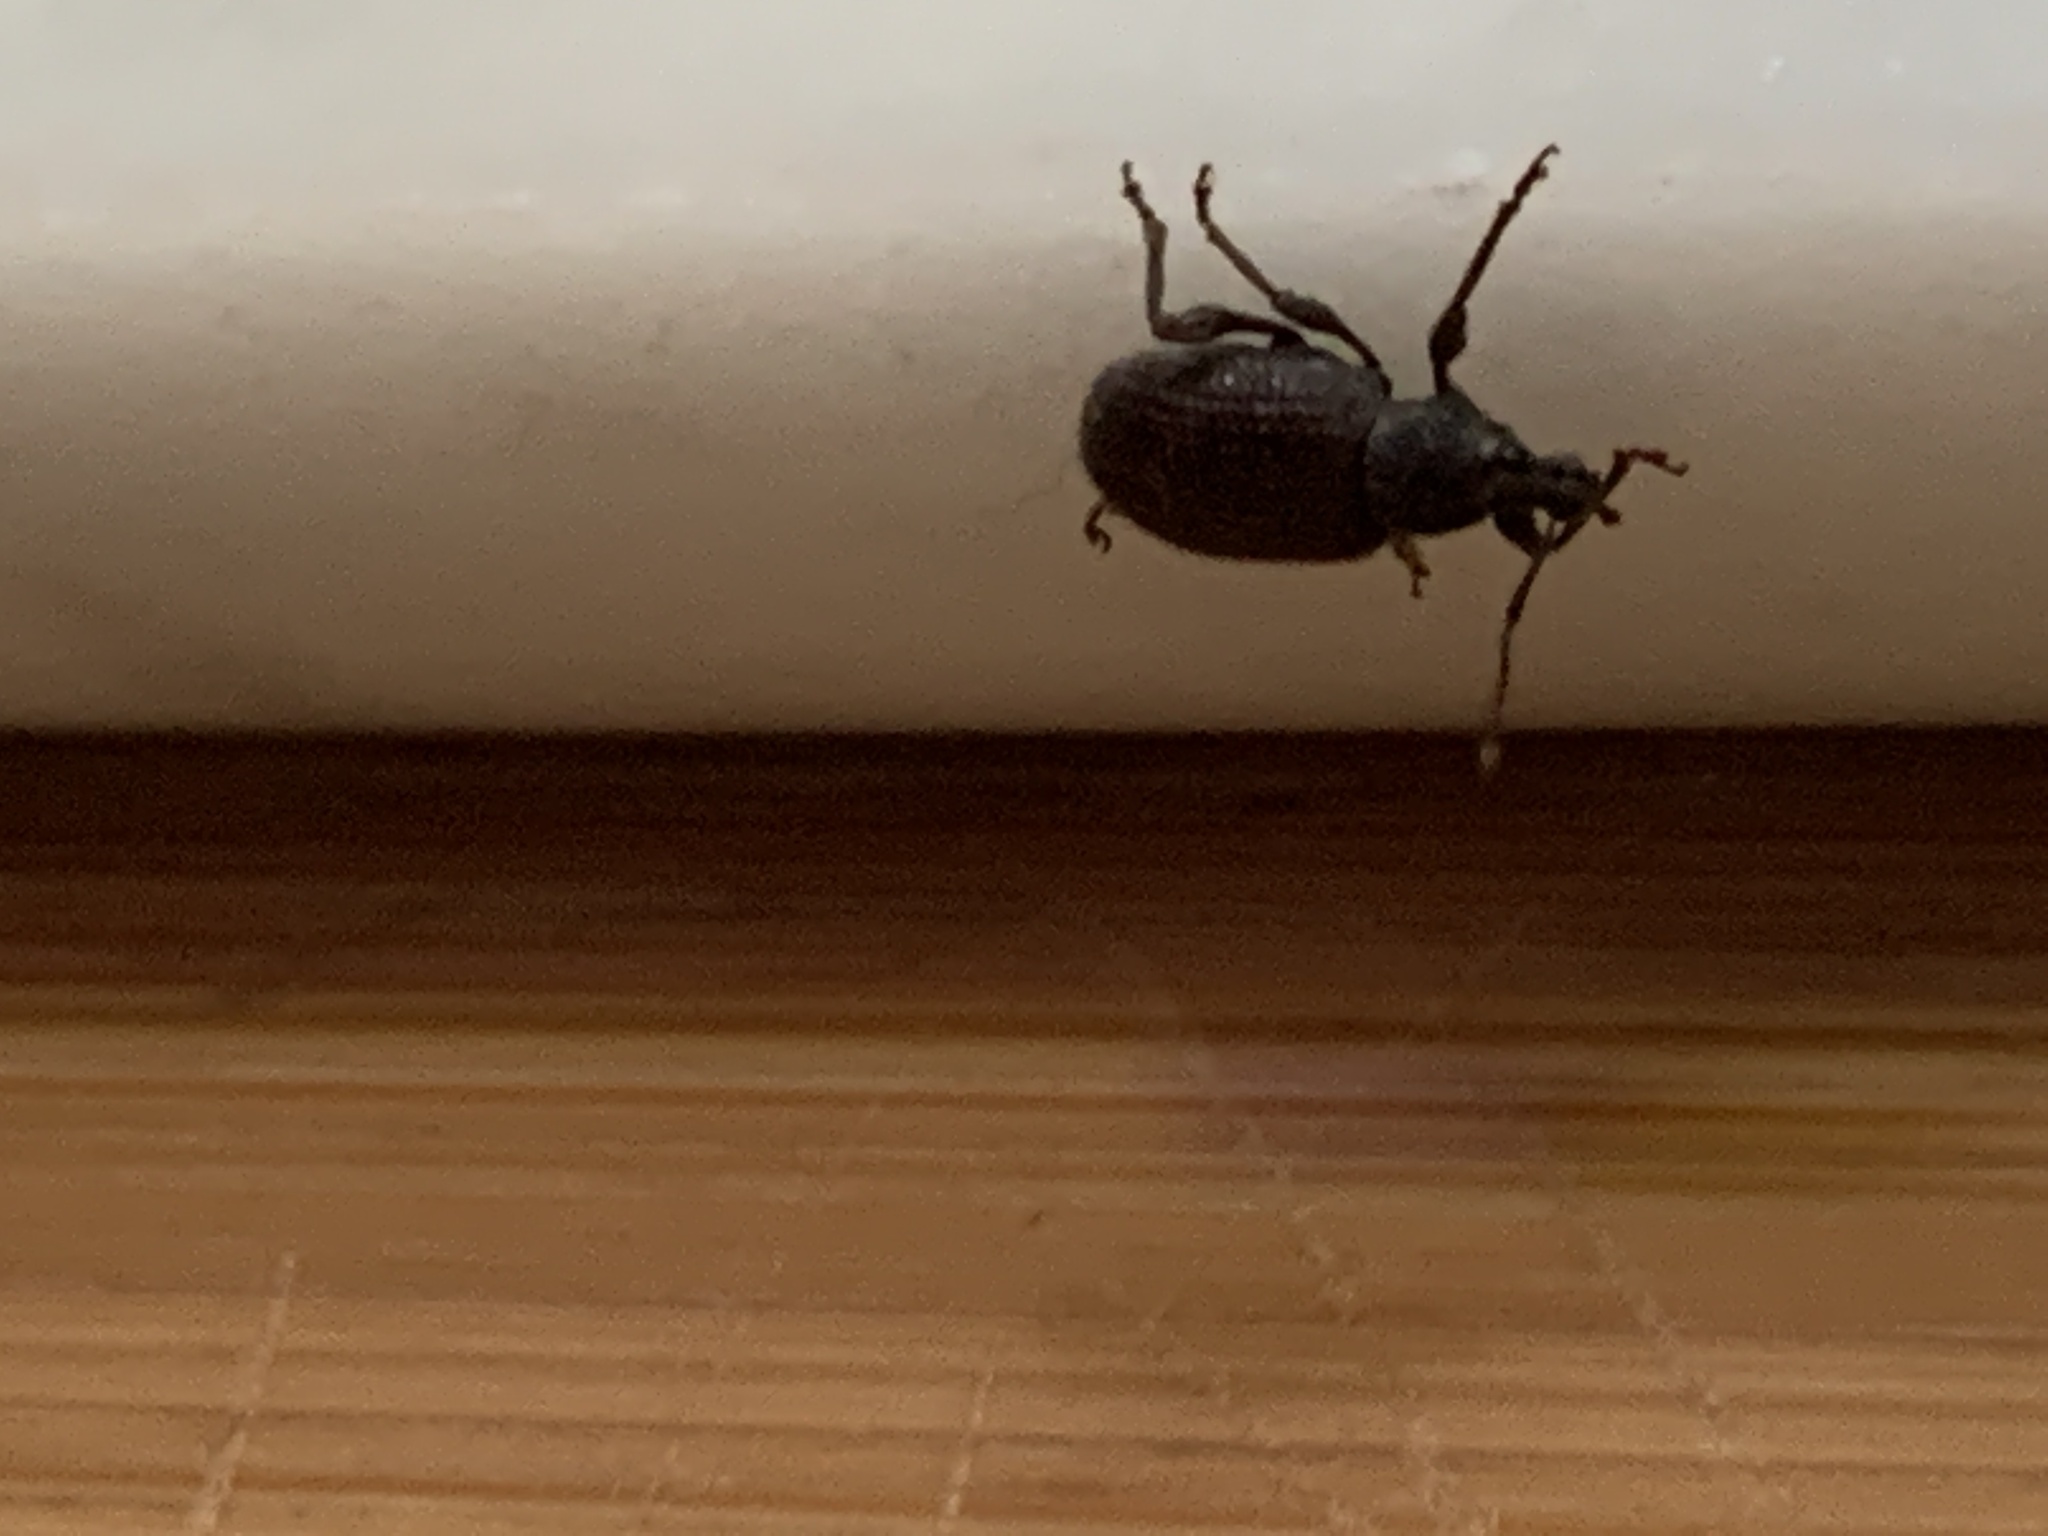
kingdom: Animalia
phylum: Arthropoda
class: Insecta
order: Coleoptera
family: Curculionidae
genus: Otiorhynchus
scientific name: Otiorhynchus rugosostriatus
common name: Weevil
